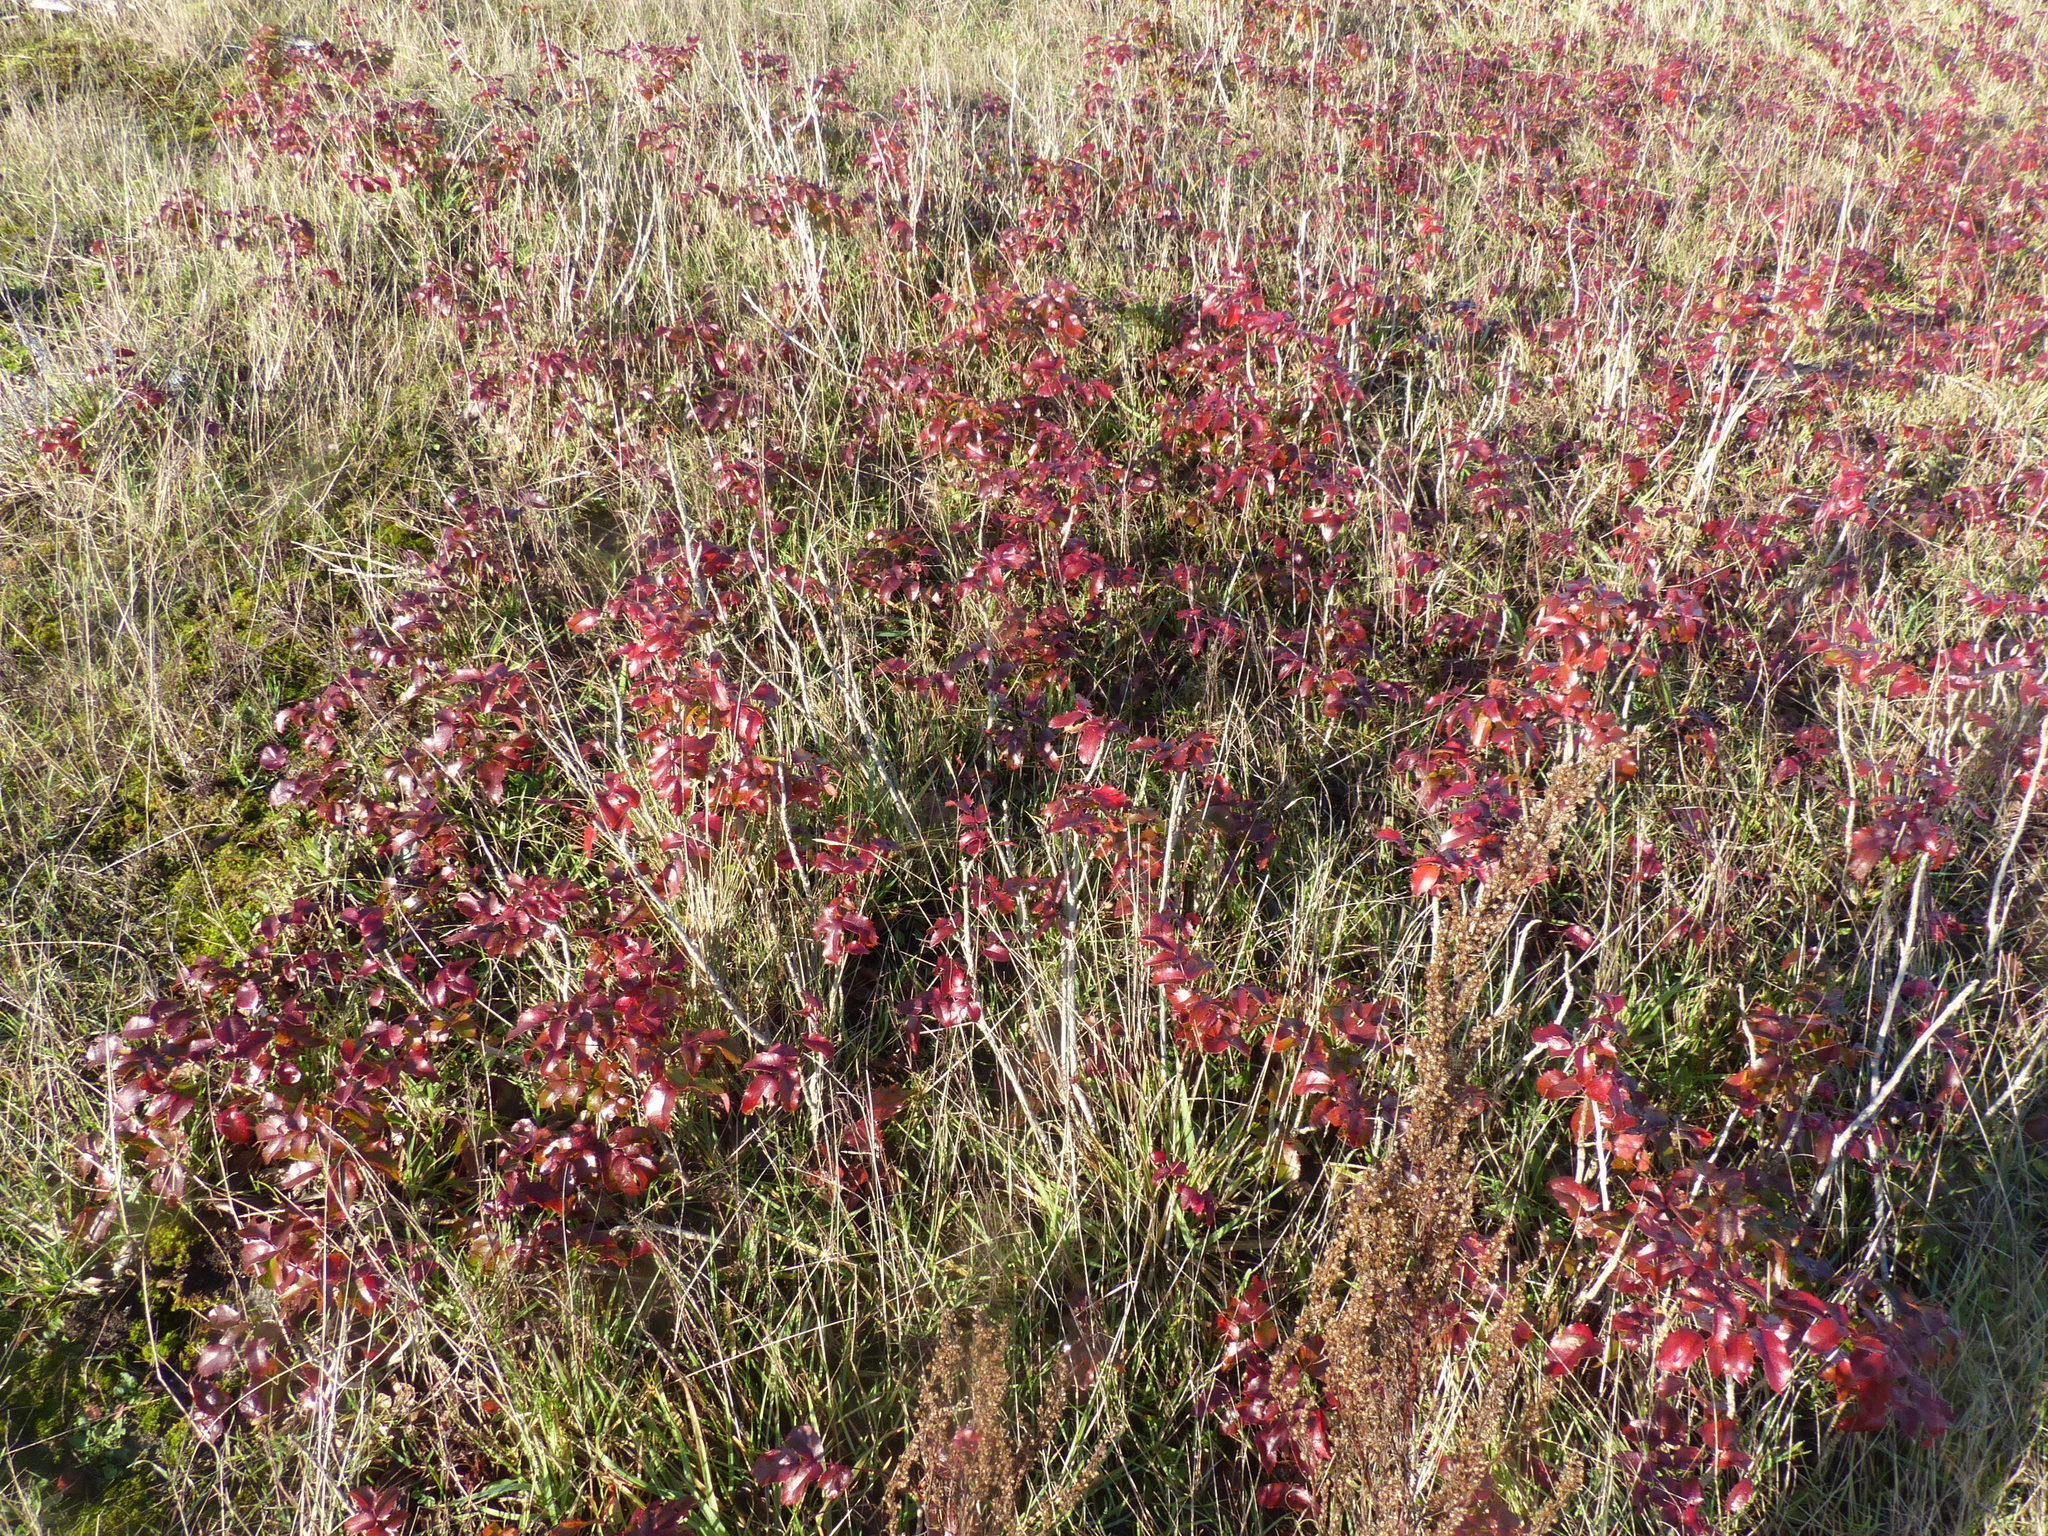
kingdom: Plantae
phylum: Tracheophyta
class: Magnoliopsida
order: Ranunculales
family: Berberidaceae
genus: Mahonia
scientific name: Mahonia aquifolium
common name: Oregon-grape
